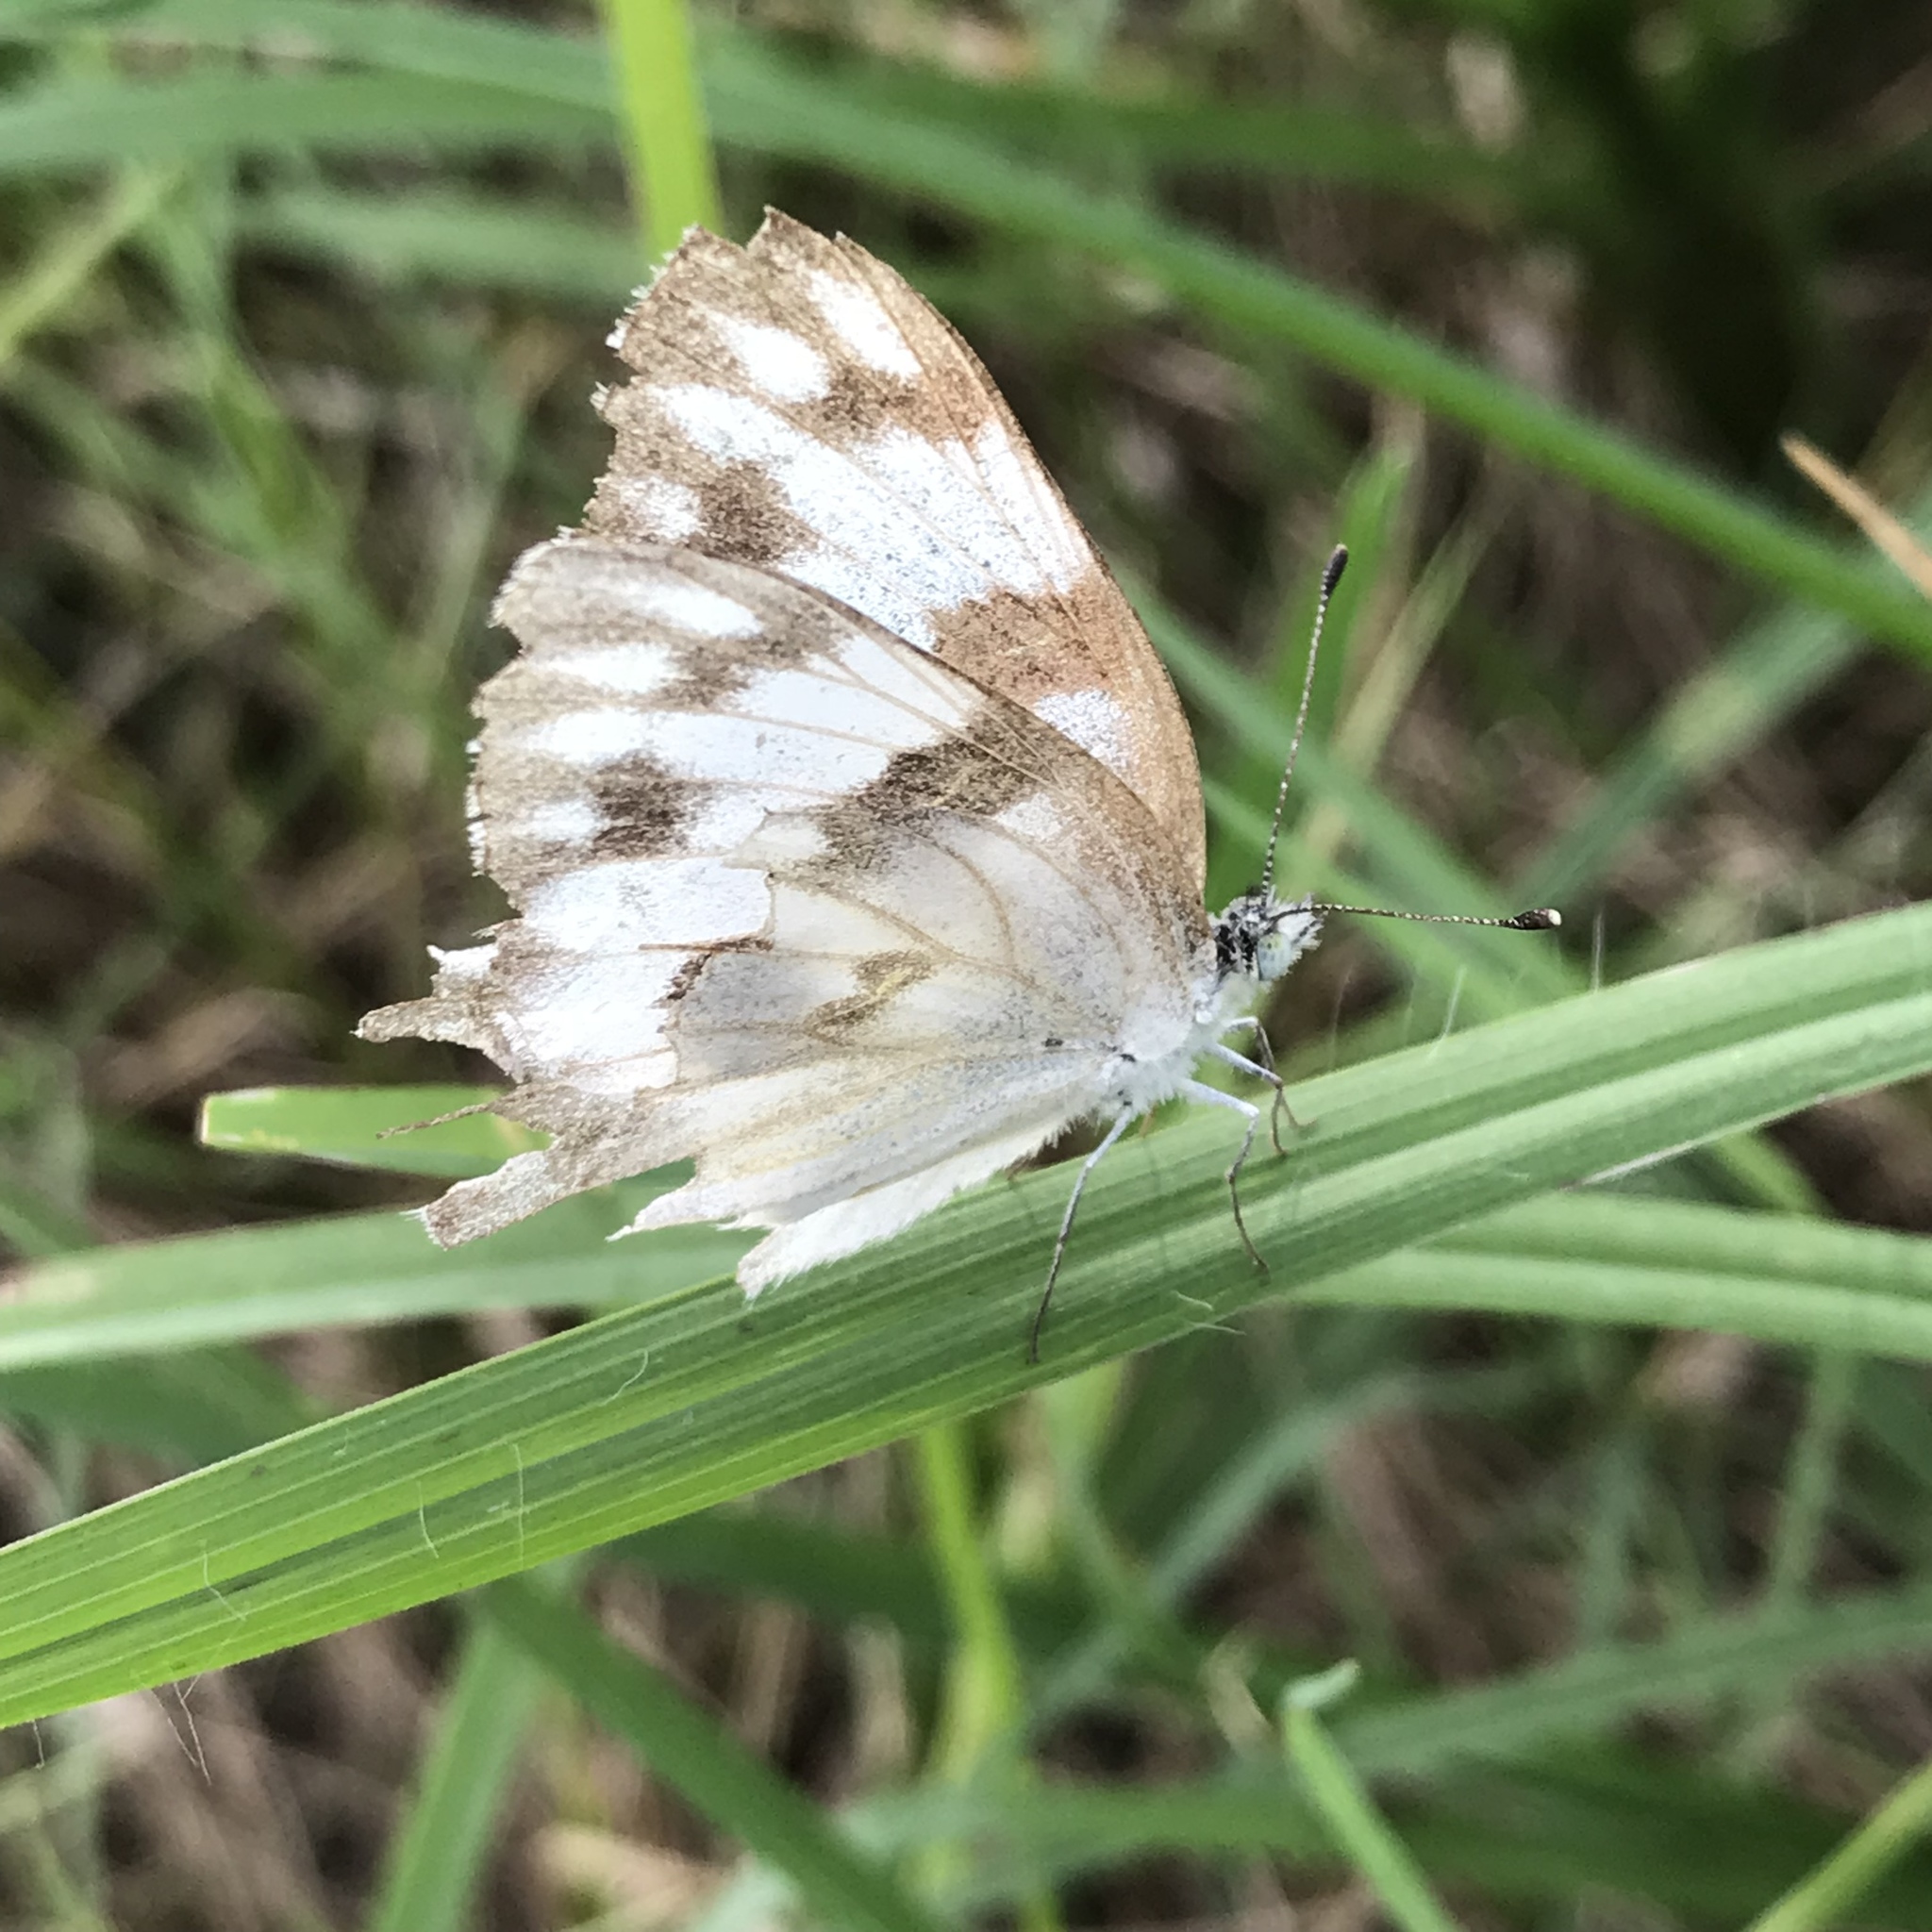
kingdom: Animalia
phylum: Arthropoda
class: Insecta
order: Lepidoptera
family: Pieridae
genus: Pontia
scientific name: Pontia protodice
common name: Checkered white
